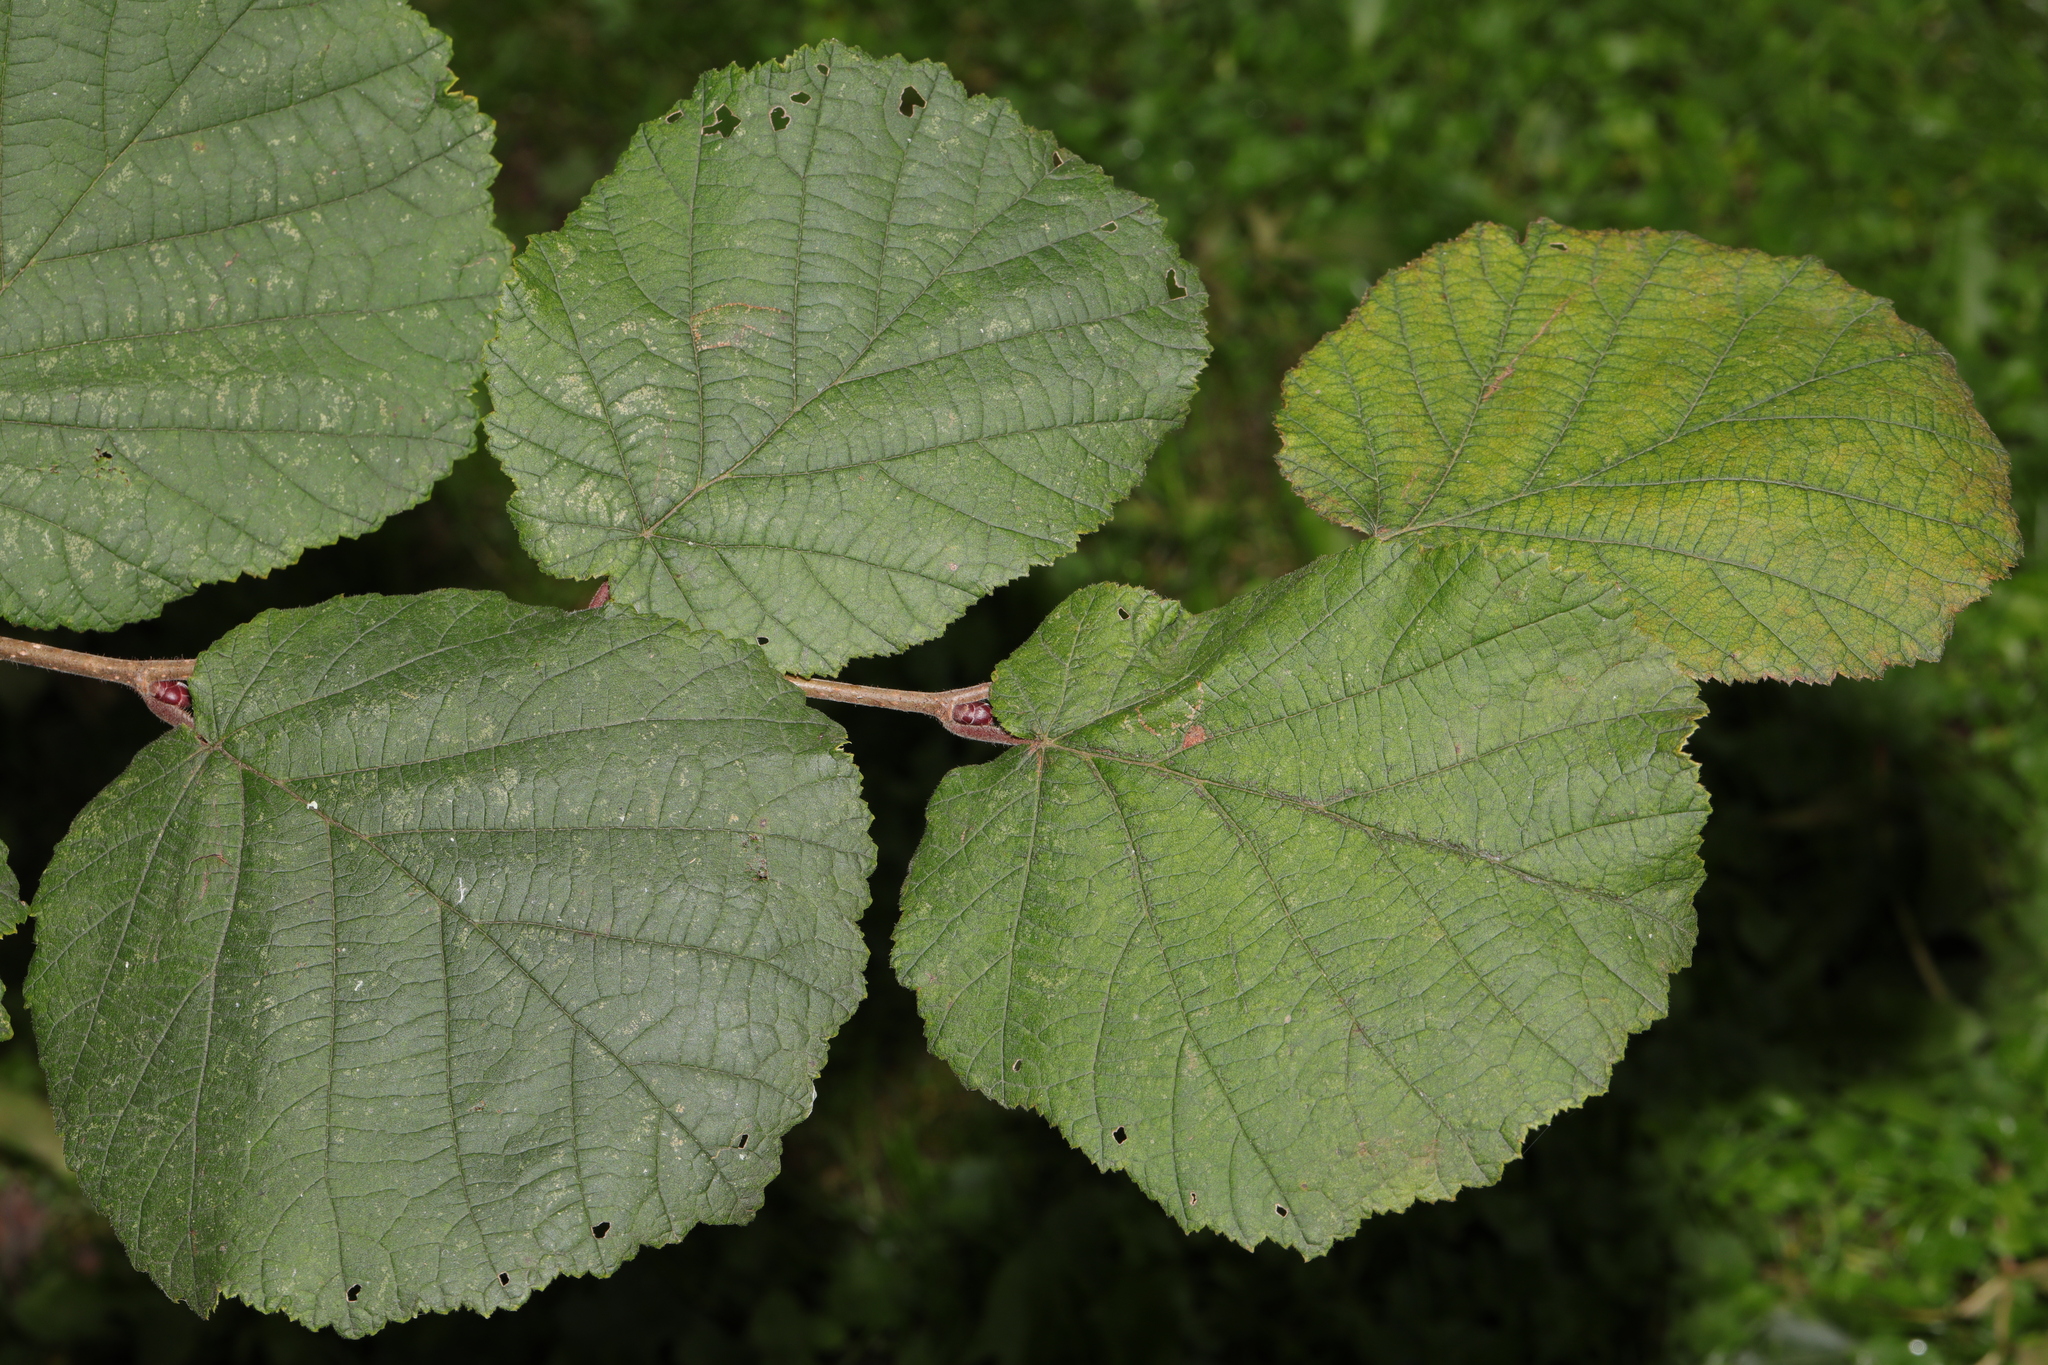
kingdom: Plantae
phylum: Tracheophyta
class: Magnoliopsida
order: Fagales
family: Betulaceae
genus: Corylus
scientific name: Corylus avellana
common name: European hazel
